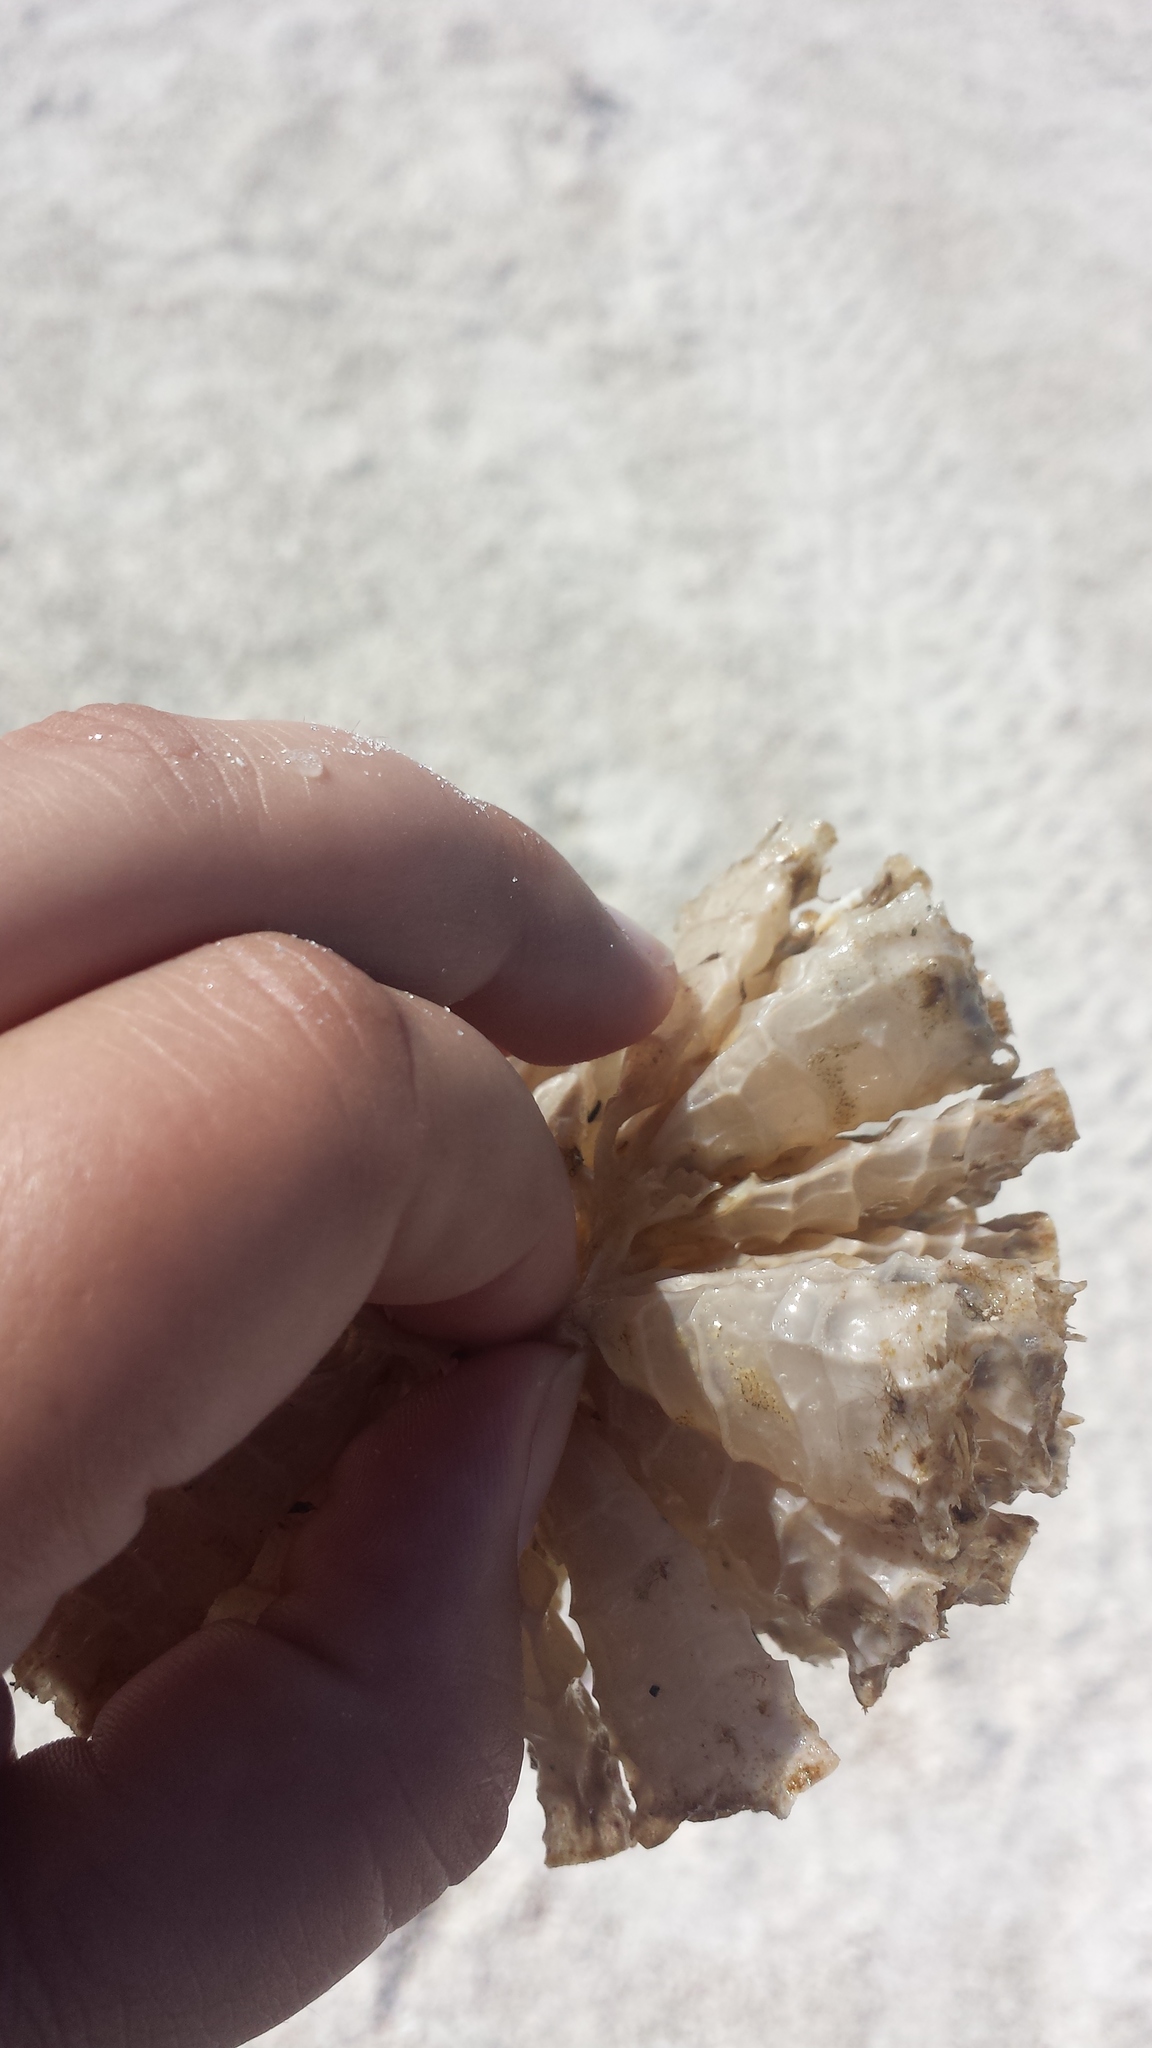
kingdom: Animalia
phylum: Mollusca
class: Gastropoda
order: Neogastropoda
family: Fasciolariidae
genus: Triplofusus
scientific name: Triplofusus giganteus
